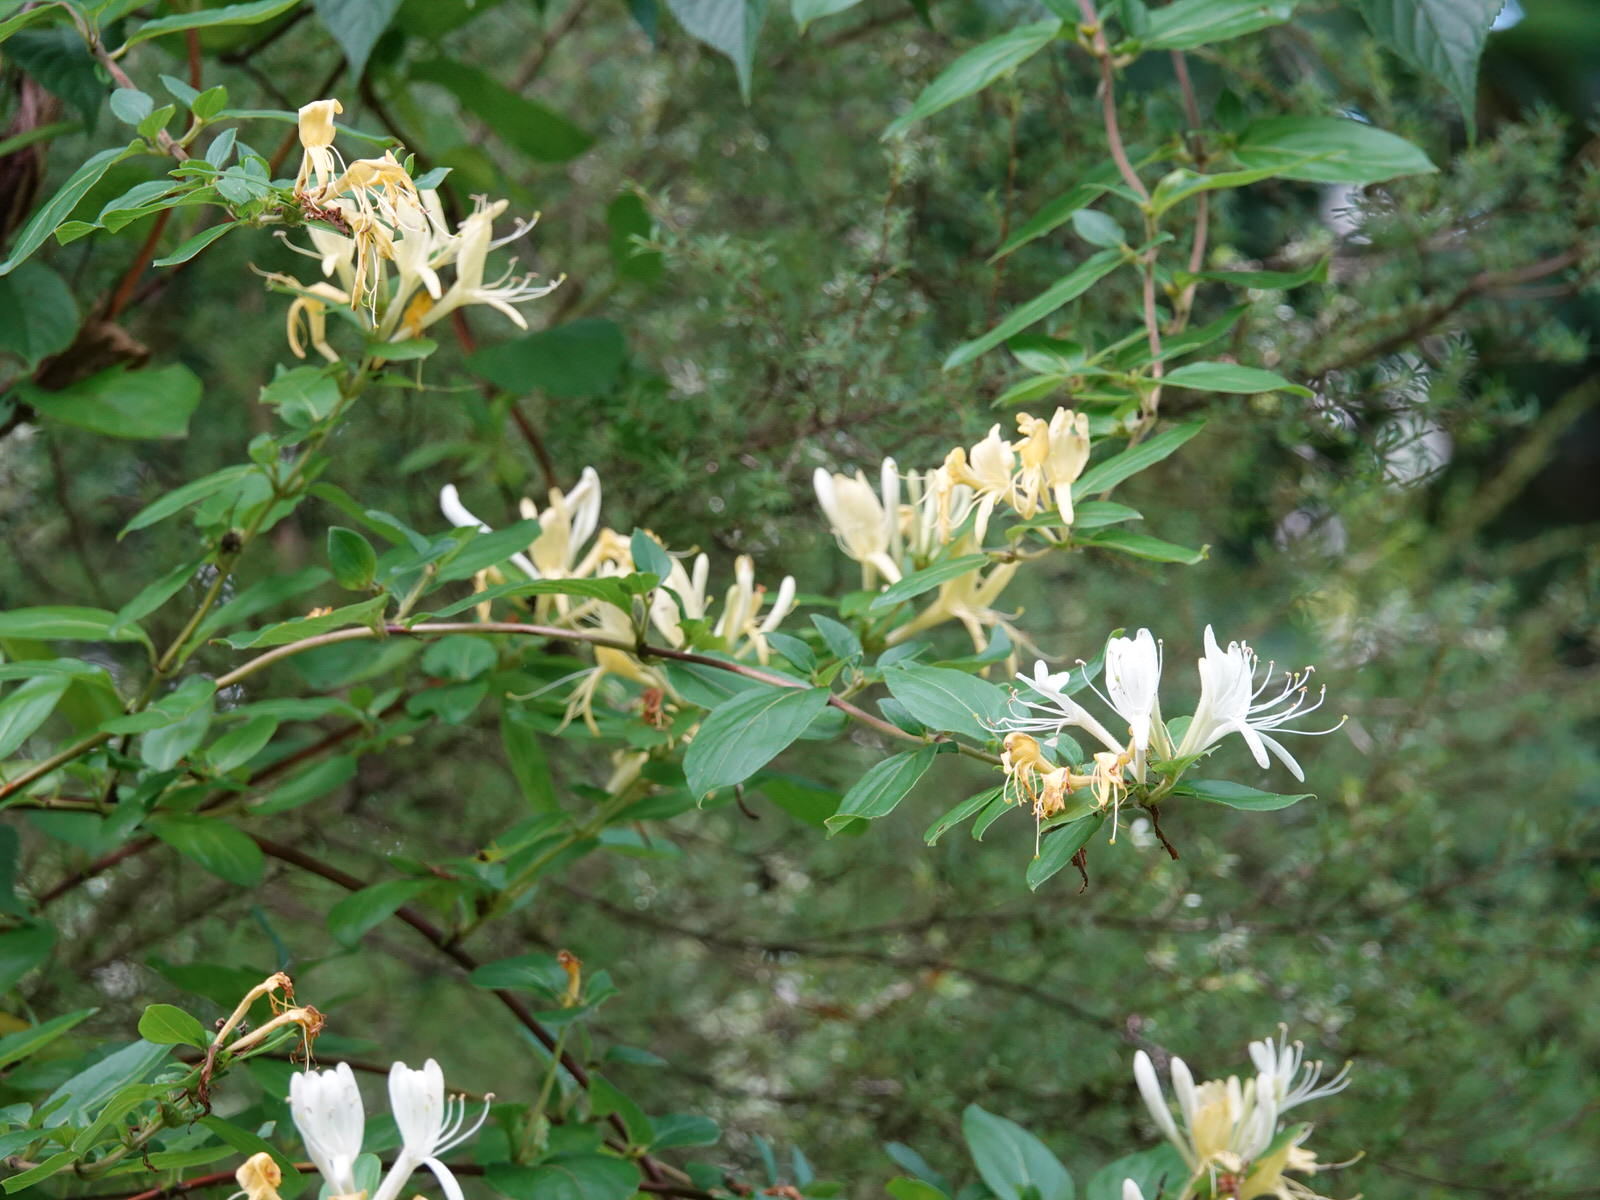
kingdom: Plantae
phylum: Tracheophyta
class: Magnoliopsida
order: Dipsacales
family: Caprifoliaceae
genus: Lonicera
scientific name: Lonicera japonica
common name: Japanese honeysuckle
